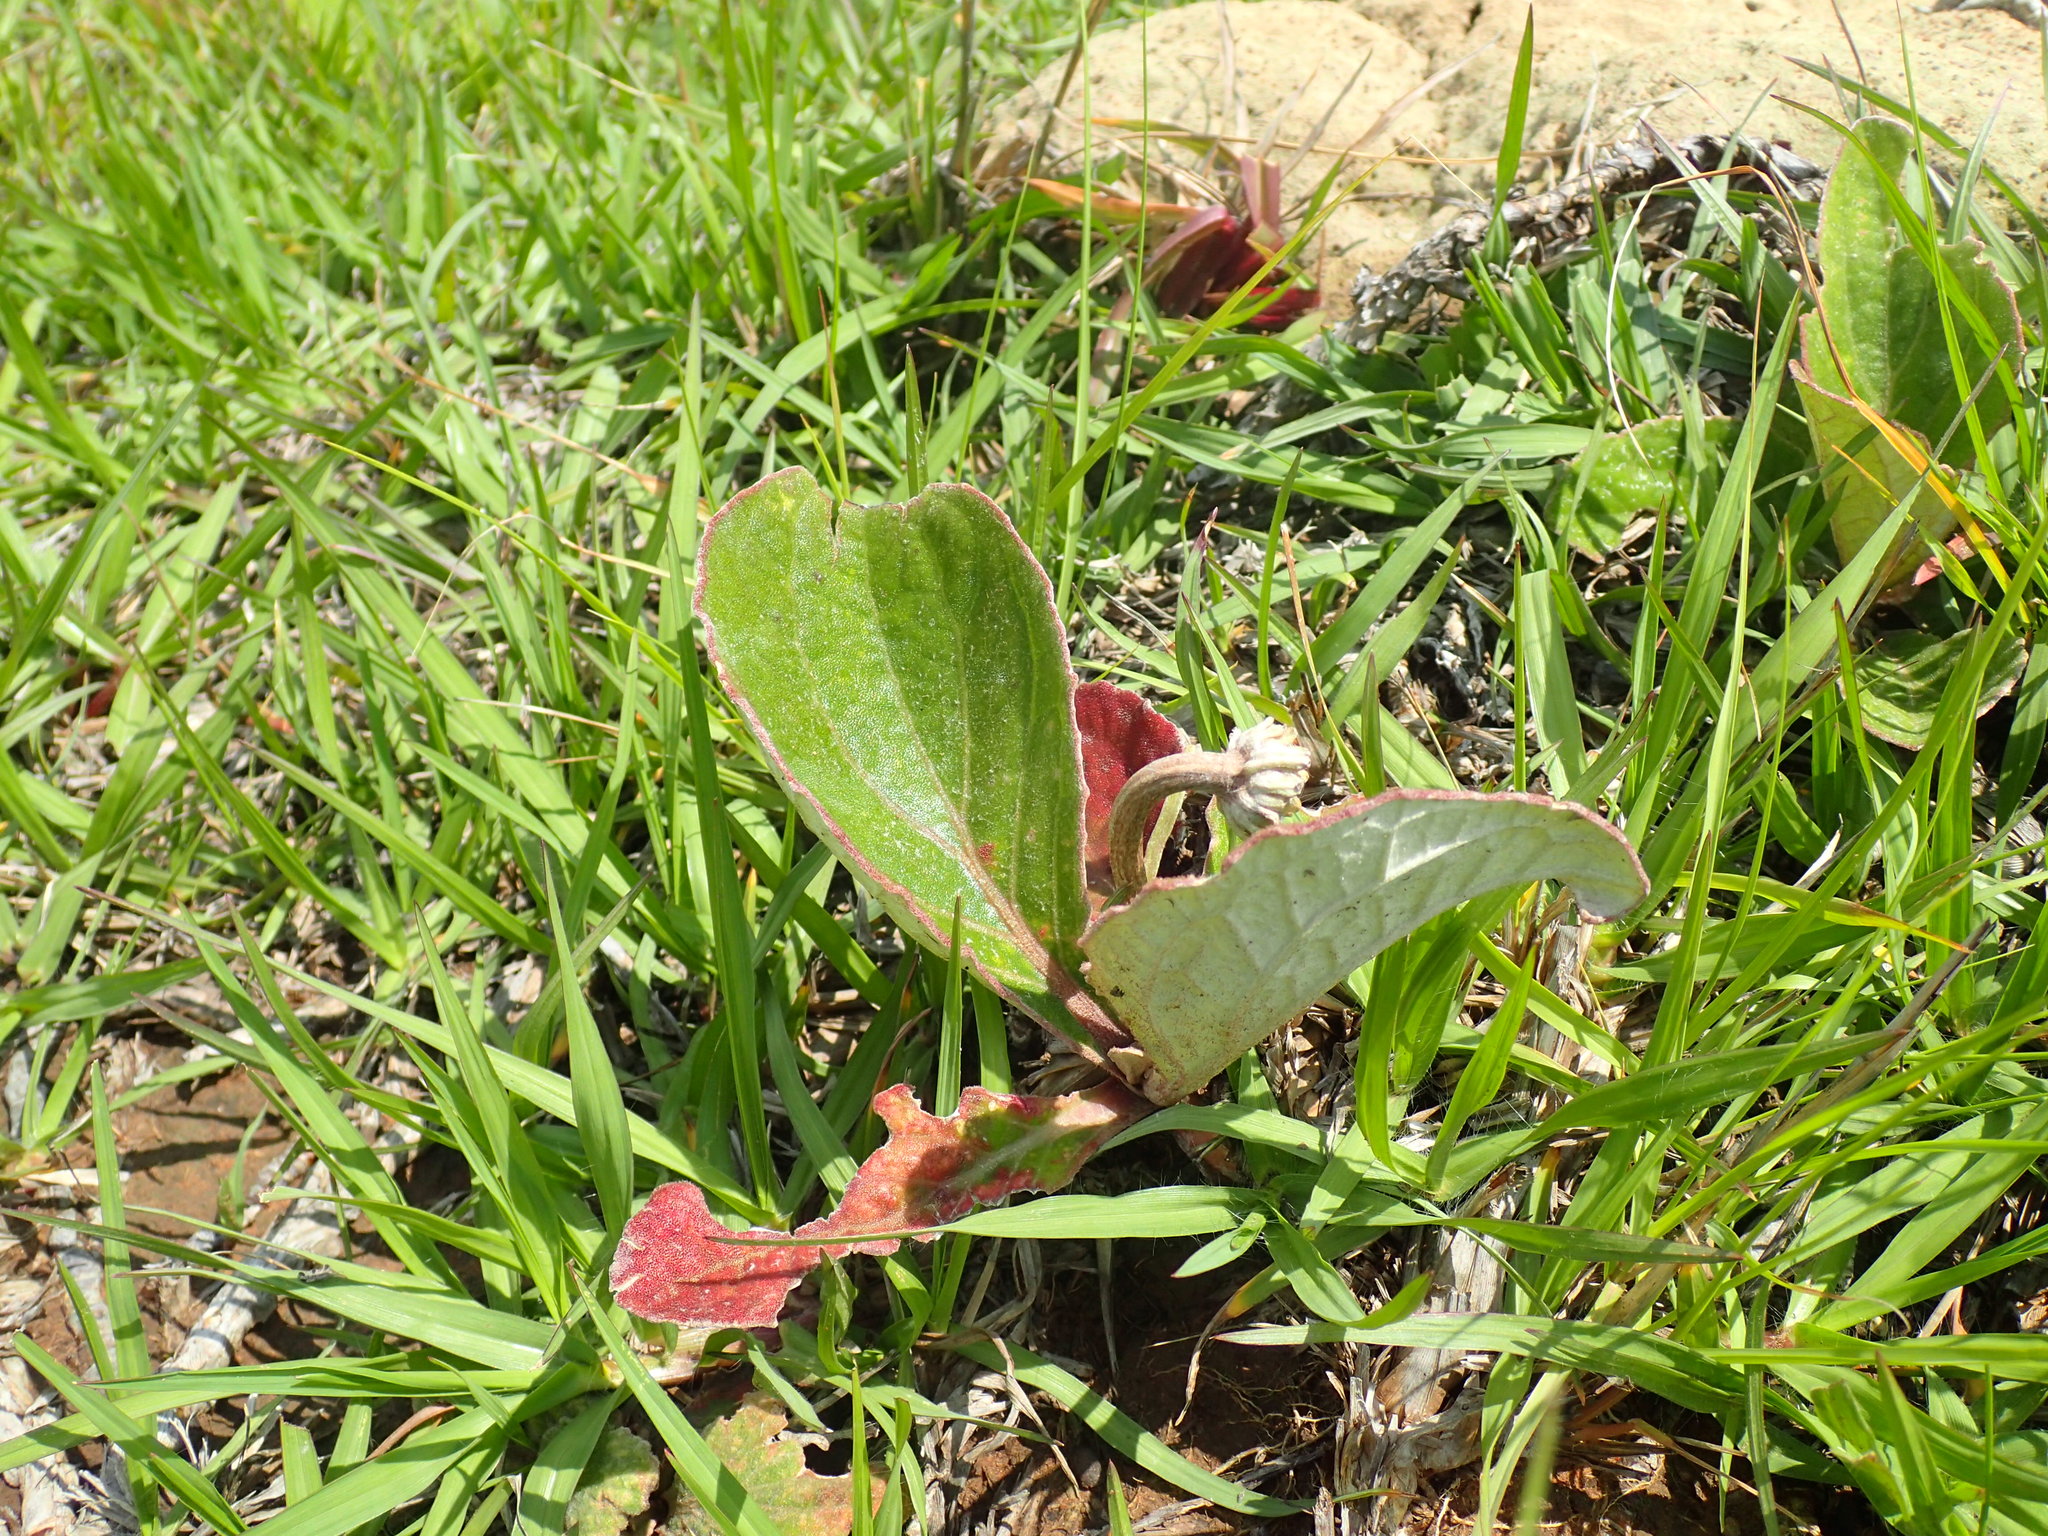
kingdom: Plantae
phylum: Tracheophyta
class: Magnoliopsida
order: Asterales
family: Asteraceae
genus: Haplocarpha
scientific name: Haplocarpha scaposa
